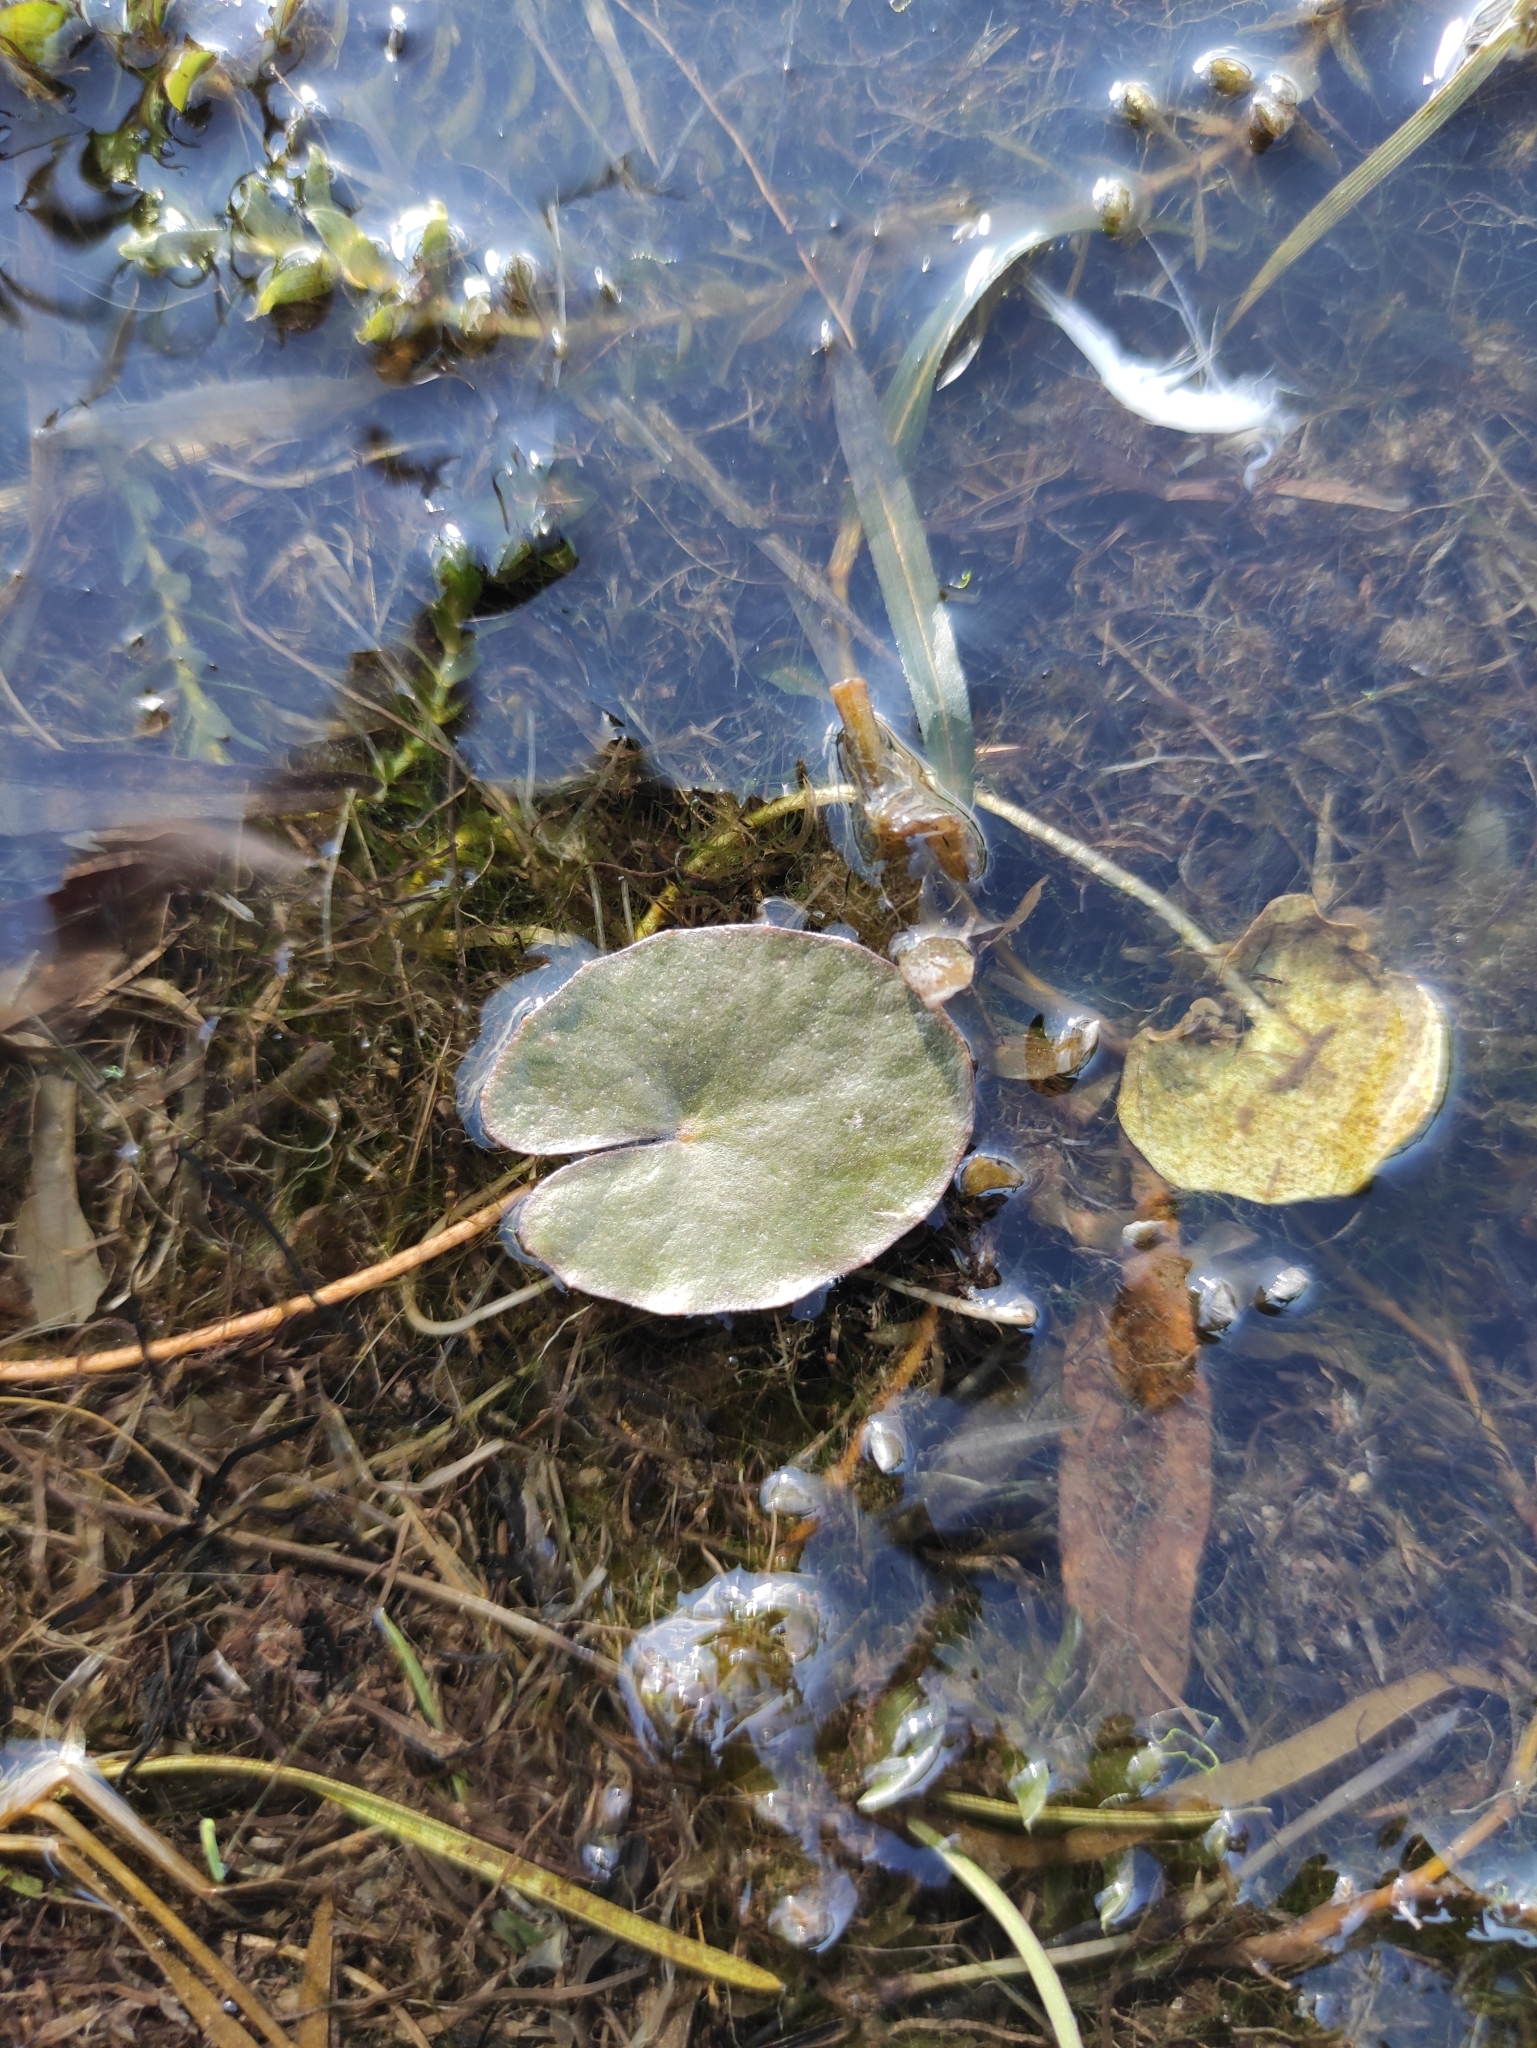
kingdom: Plantae
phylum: Tracheophyta
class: Magnoliopsida
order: Asterales
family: Menyanthaceae
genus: Nymphoides
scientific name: Nymphoides peltata
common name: Fringed water-lily
